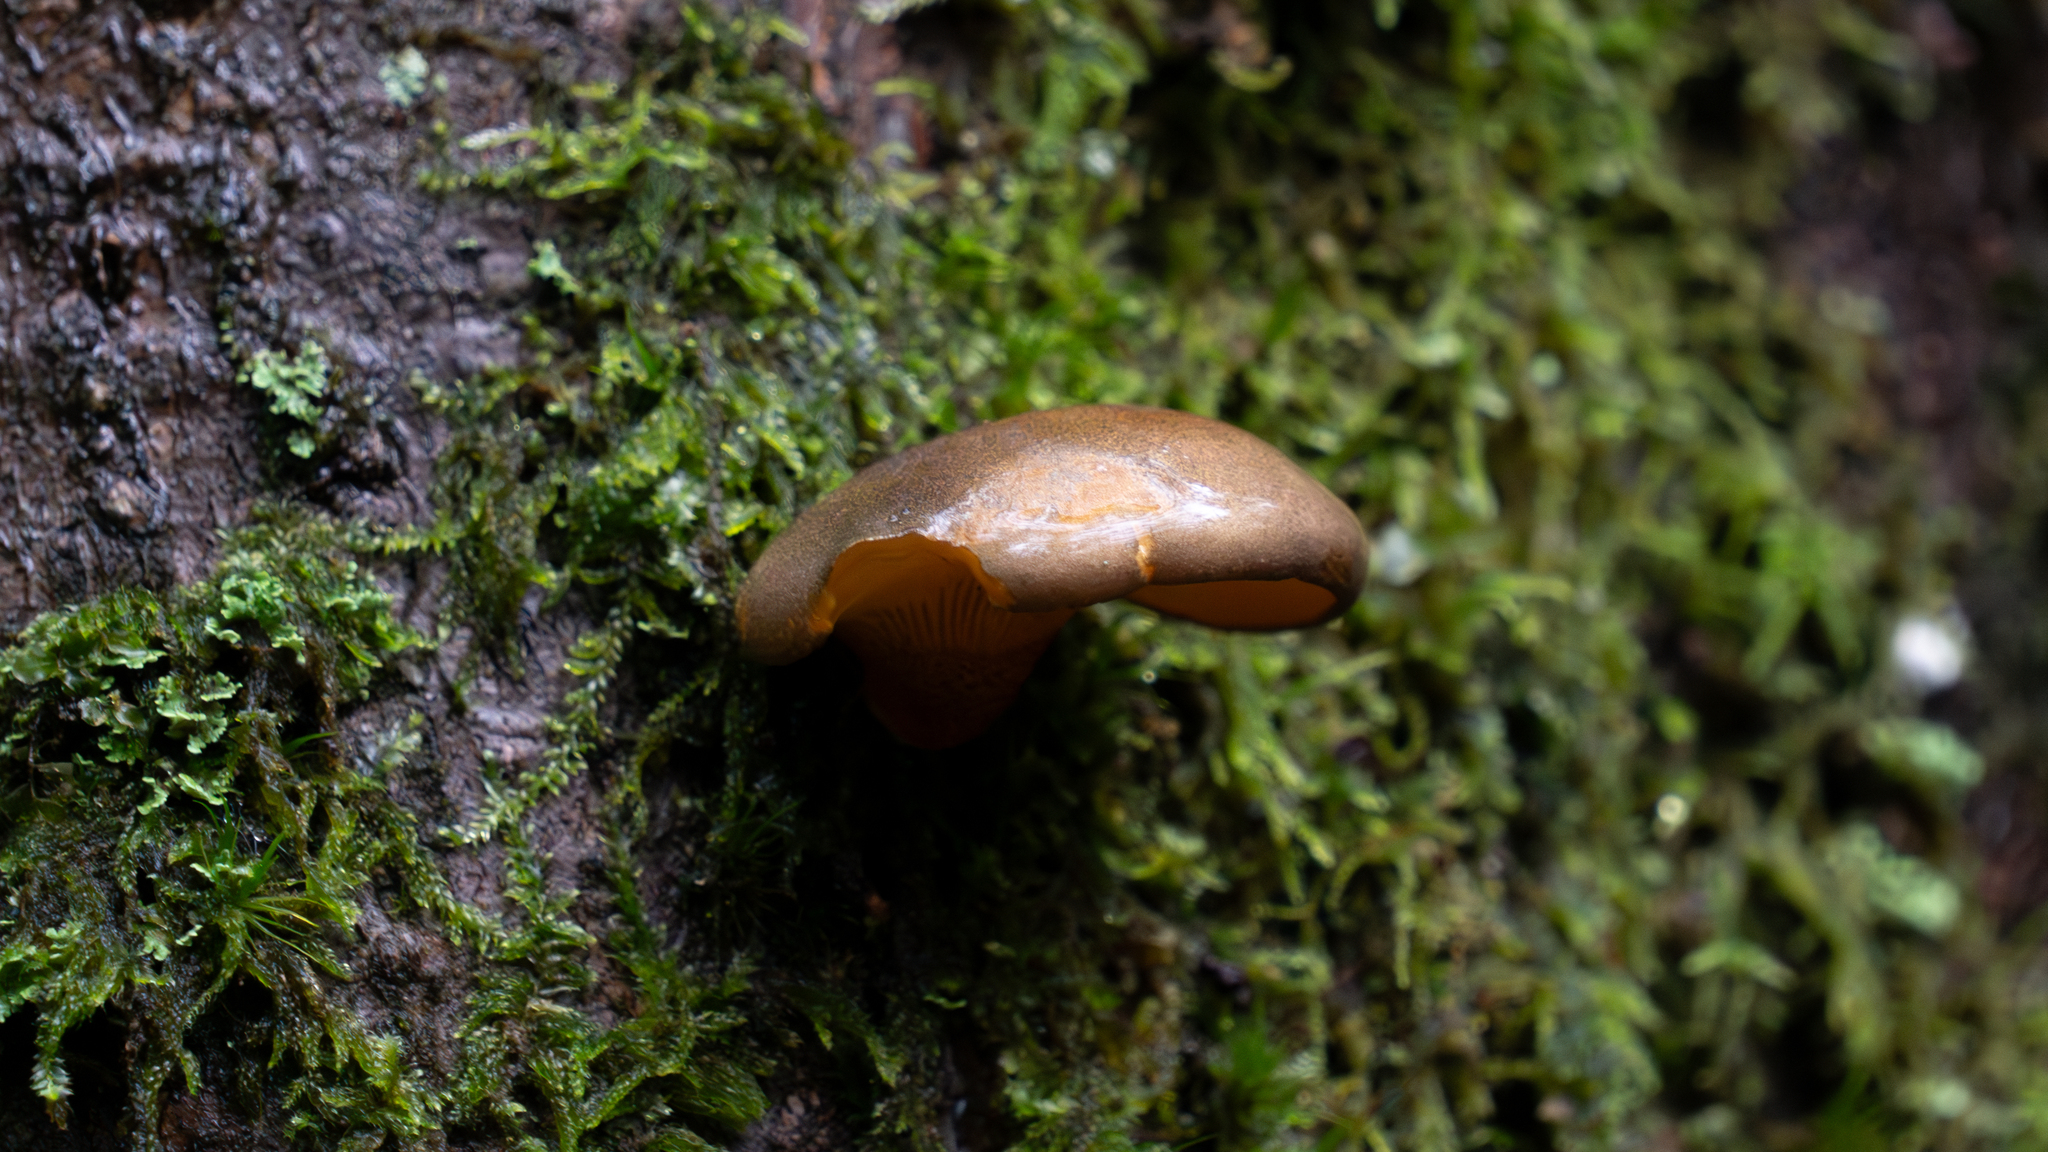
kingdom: Fungi
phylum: Basidiomycota
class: Agaricomycetes
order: Agaricales
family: Sarcomyxaceae
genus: Sarcomyxa
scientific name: Sarcomyxa serotina
